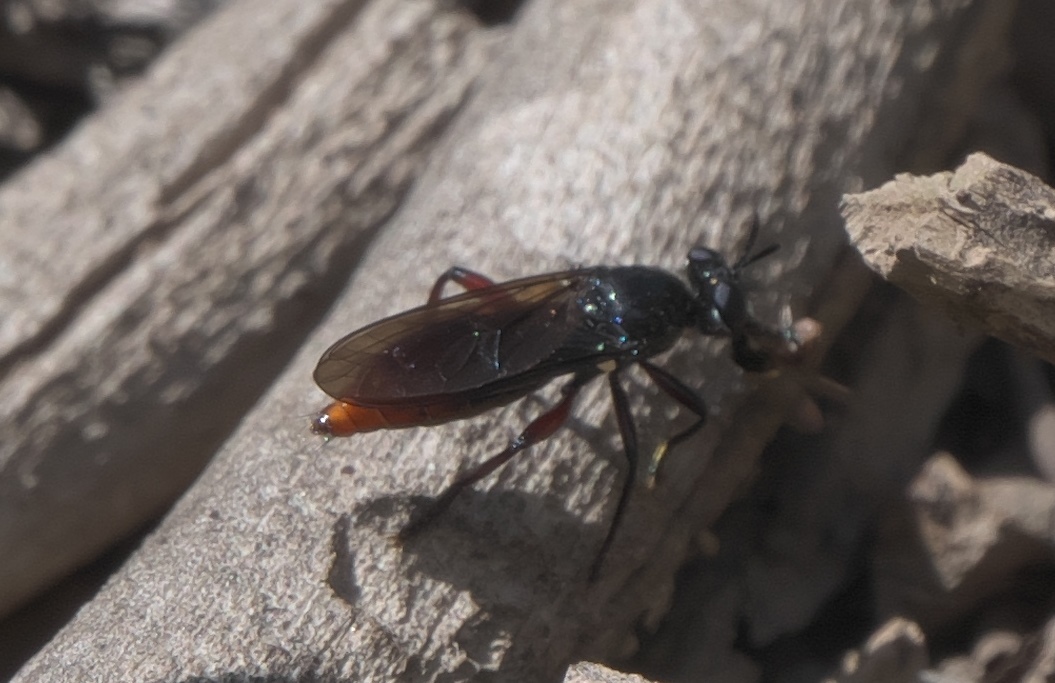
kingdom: Animalia
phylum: Arthropoda
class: Insecta
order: Diptera
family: Asilidae
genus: Laphria
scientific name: Laphria felis
